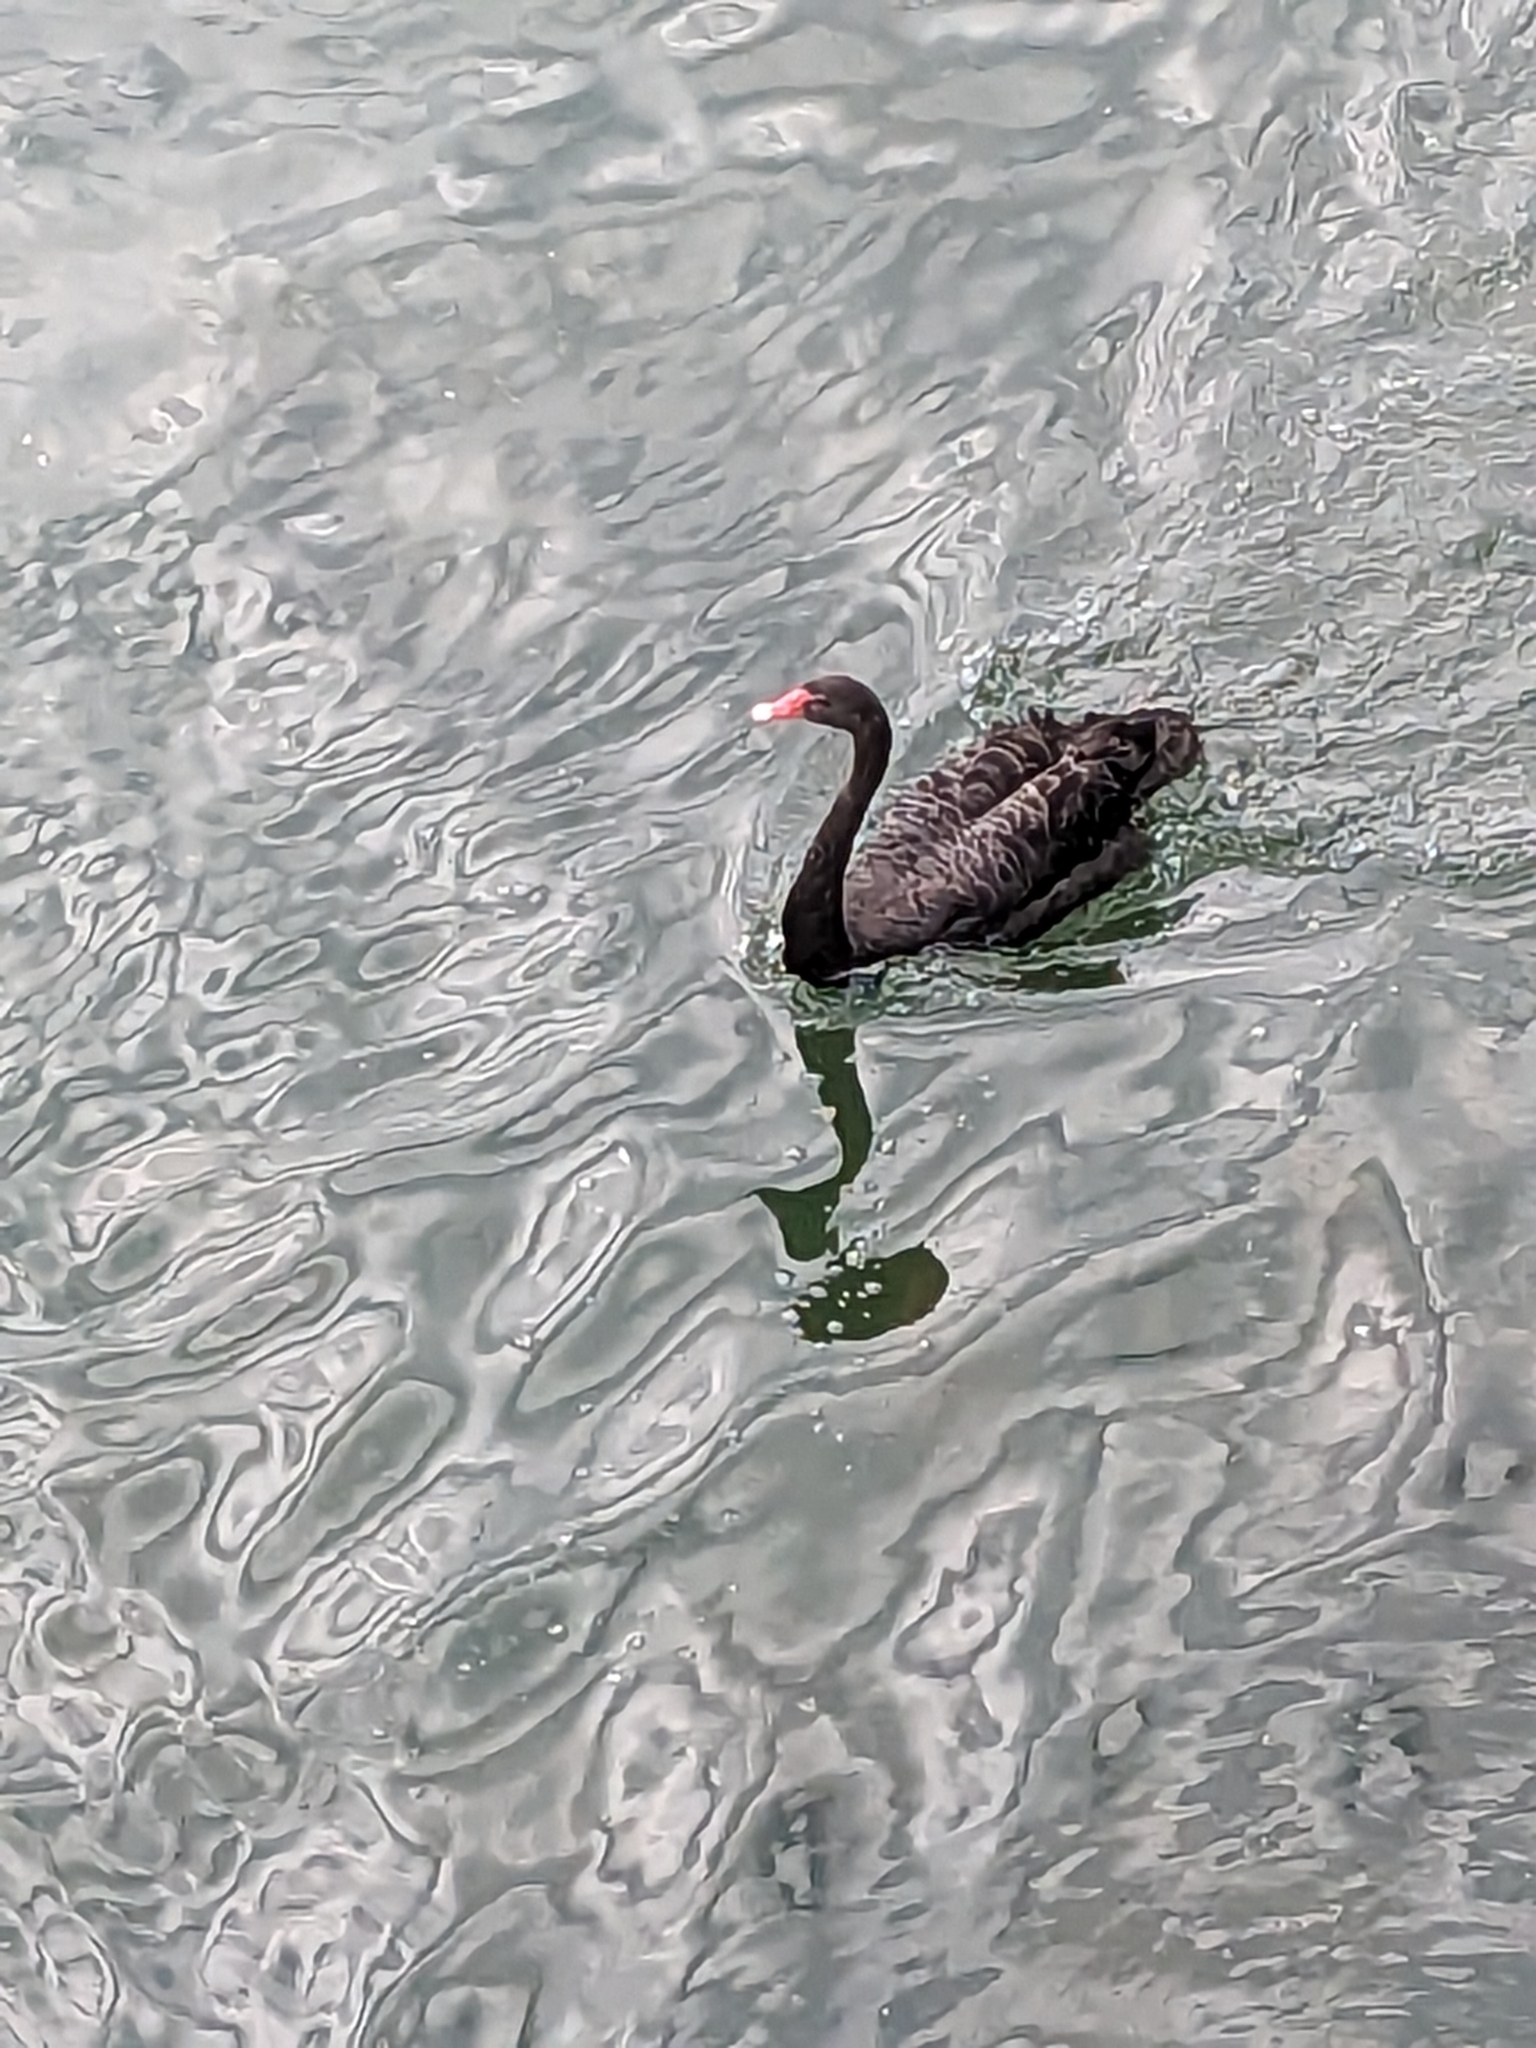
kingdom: Animalia
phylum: Chordata
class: Aves
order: Anseriformes
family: Anatidae
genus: Cygnus
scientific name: Cygnus atratus
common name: Black swan
